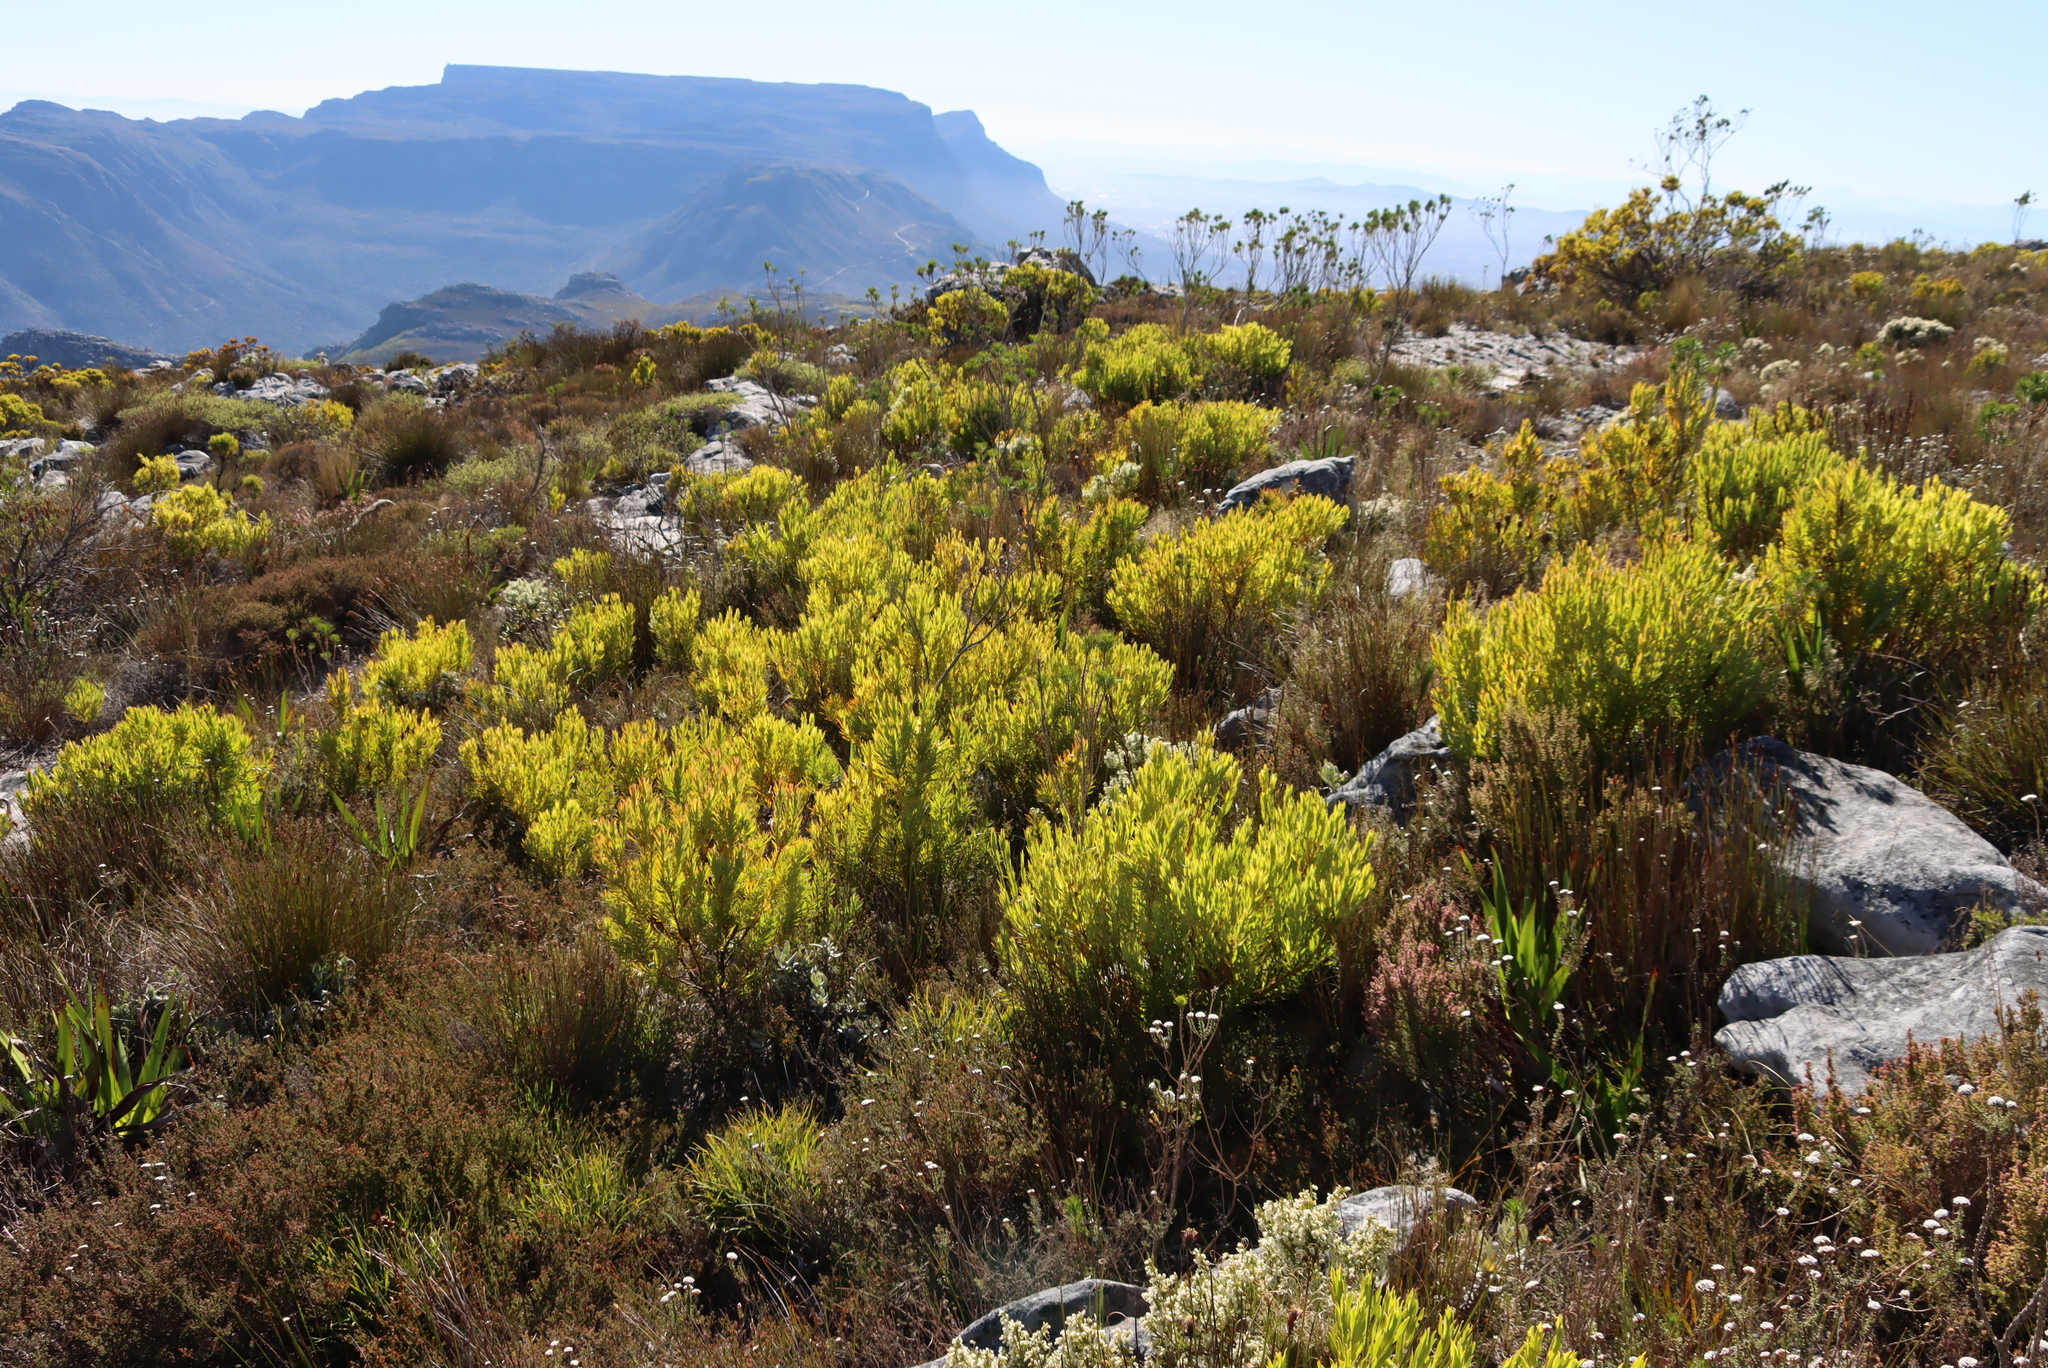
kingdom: Plantae
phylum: Tracheophyta
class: Magnoliopsida
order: Proteales
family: Proteaceae
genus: Leucadendron
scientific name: Leucadendron xanthoconus
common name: Sickle-leaf conebush
